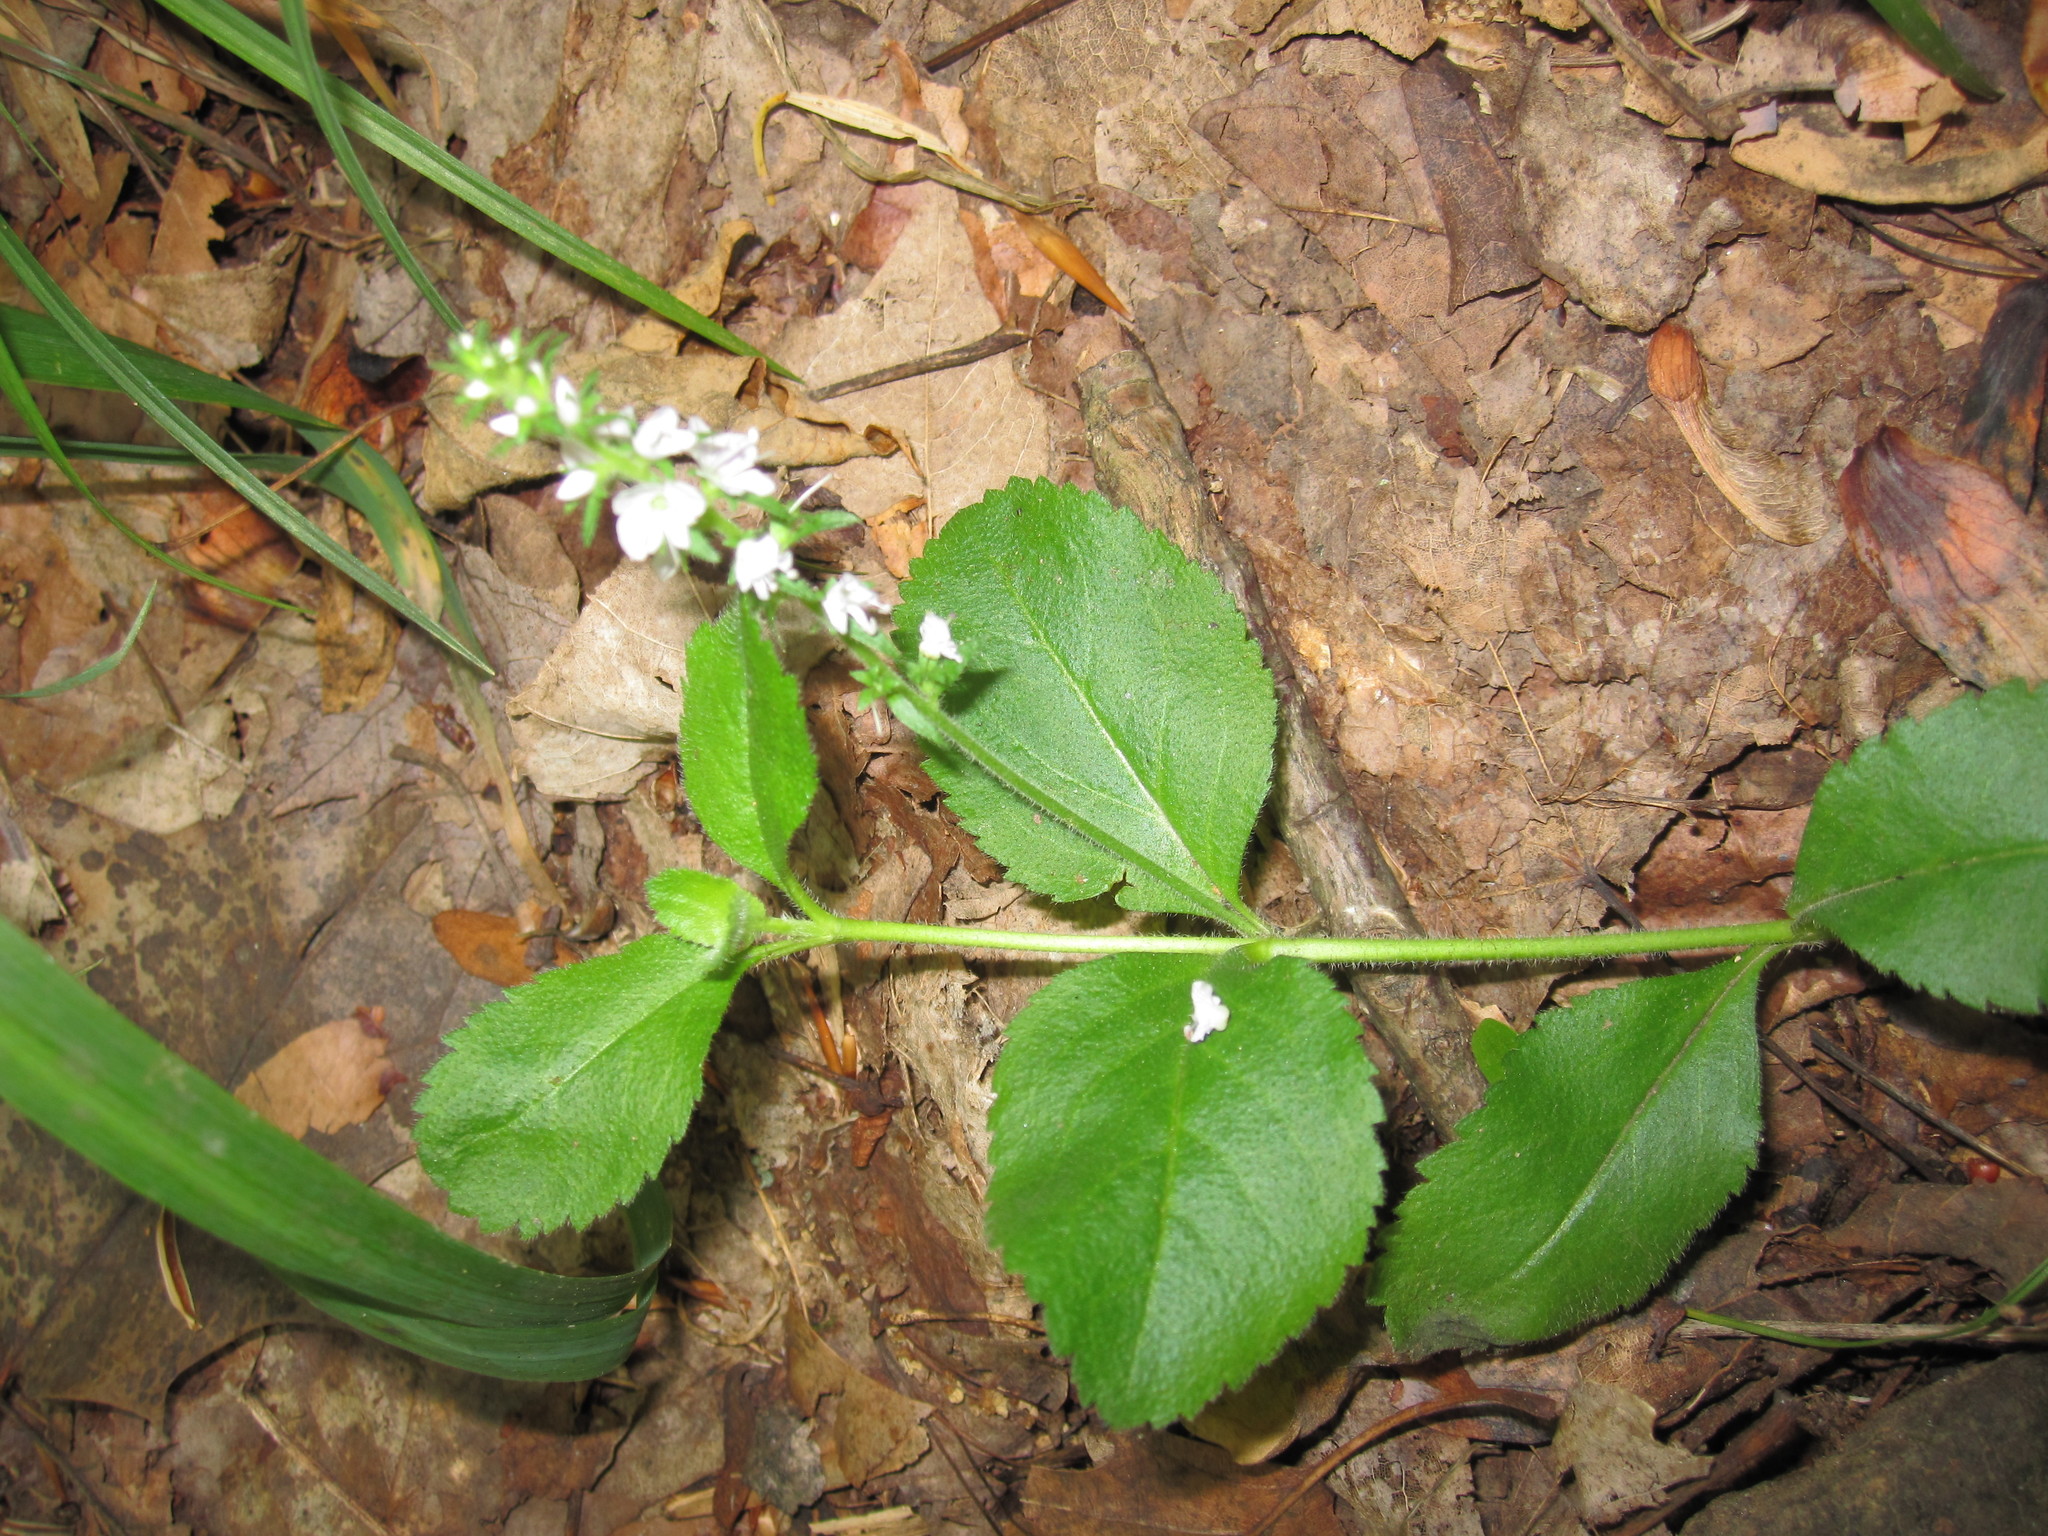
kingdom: Plantae
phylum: Tracheophyta
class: Magnoliopsida
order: Lamiales
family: Plantaginaceae
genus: Veronica
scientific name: Veronica officinalis
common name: Common speedwell
